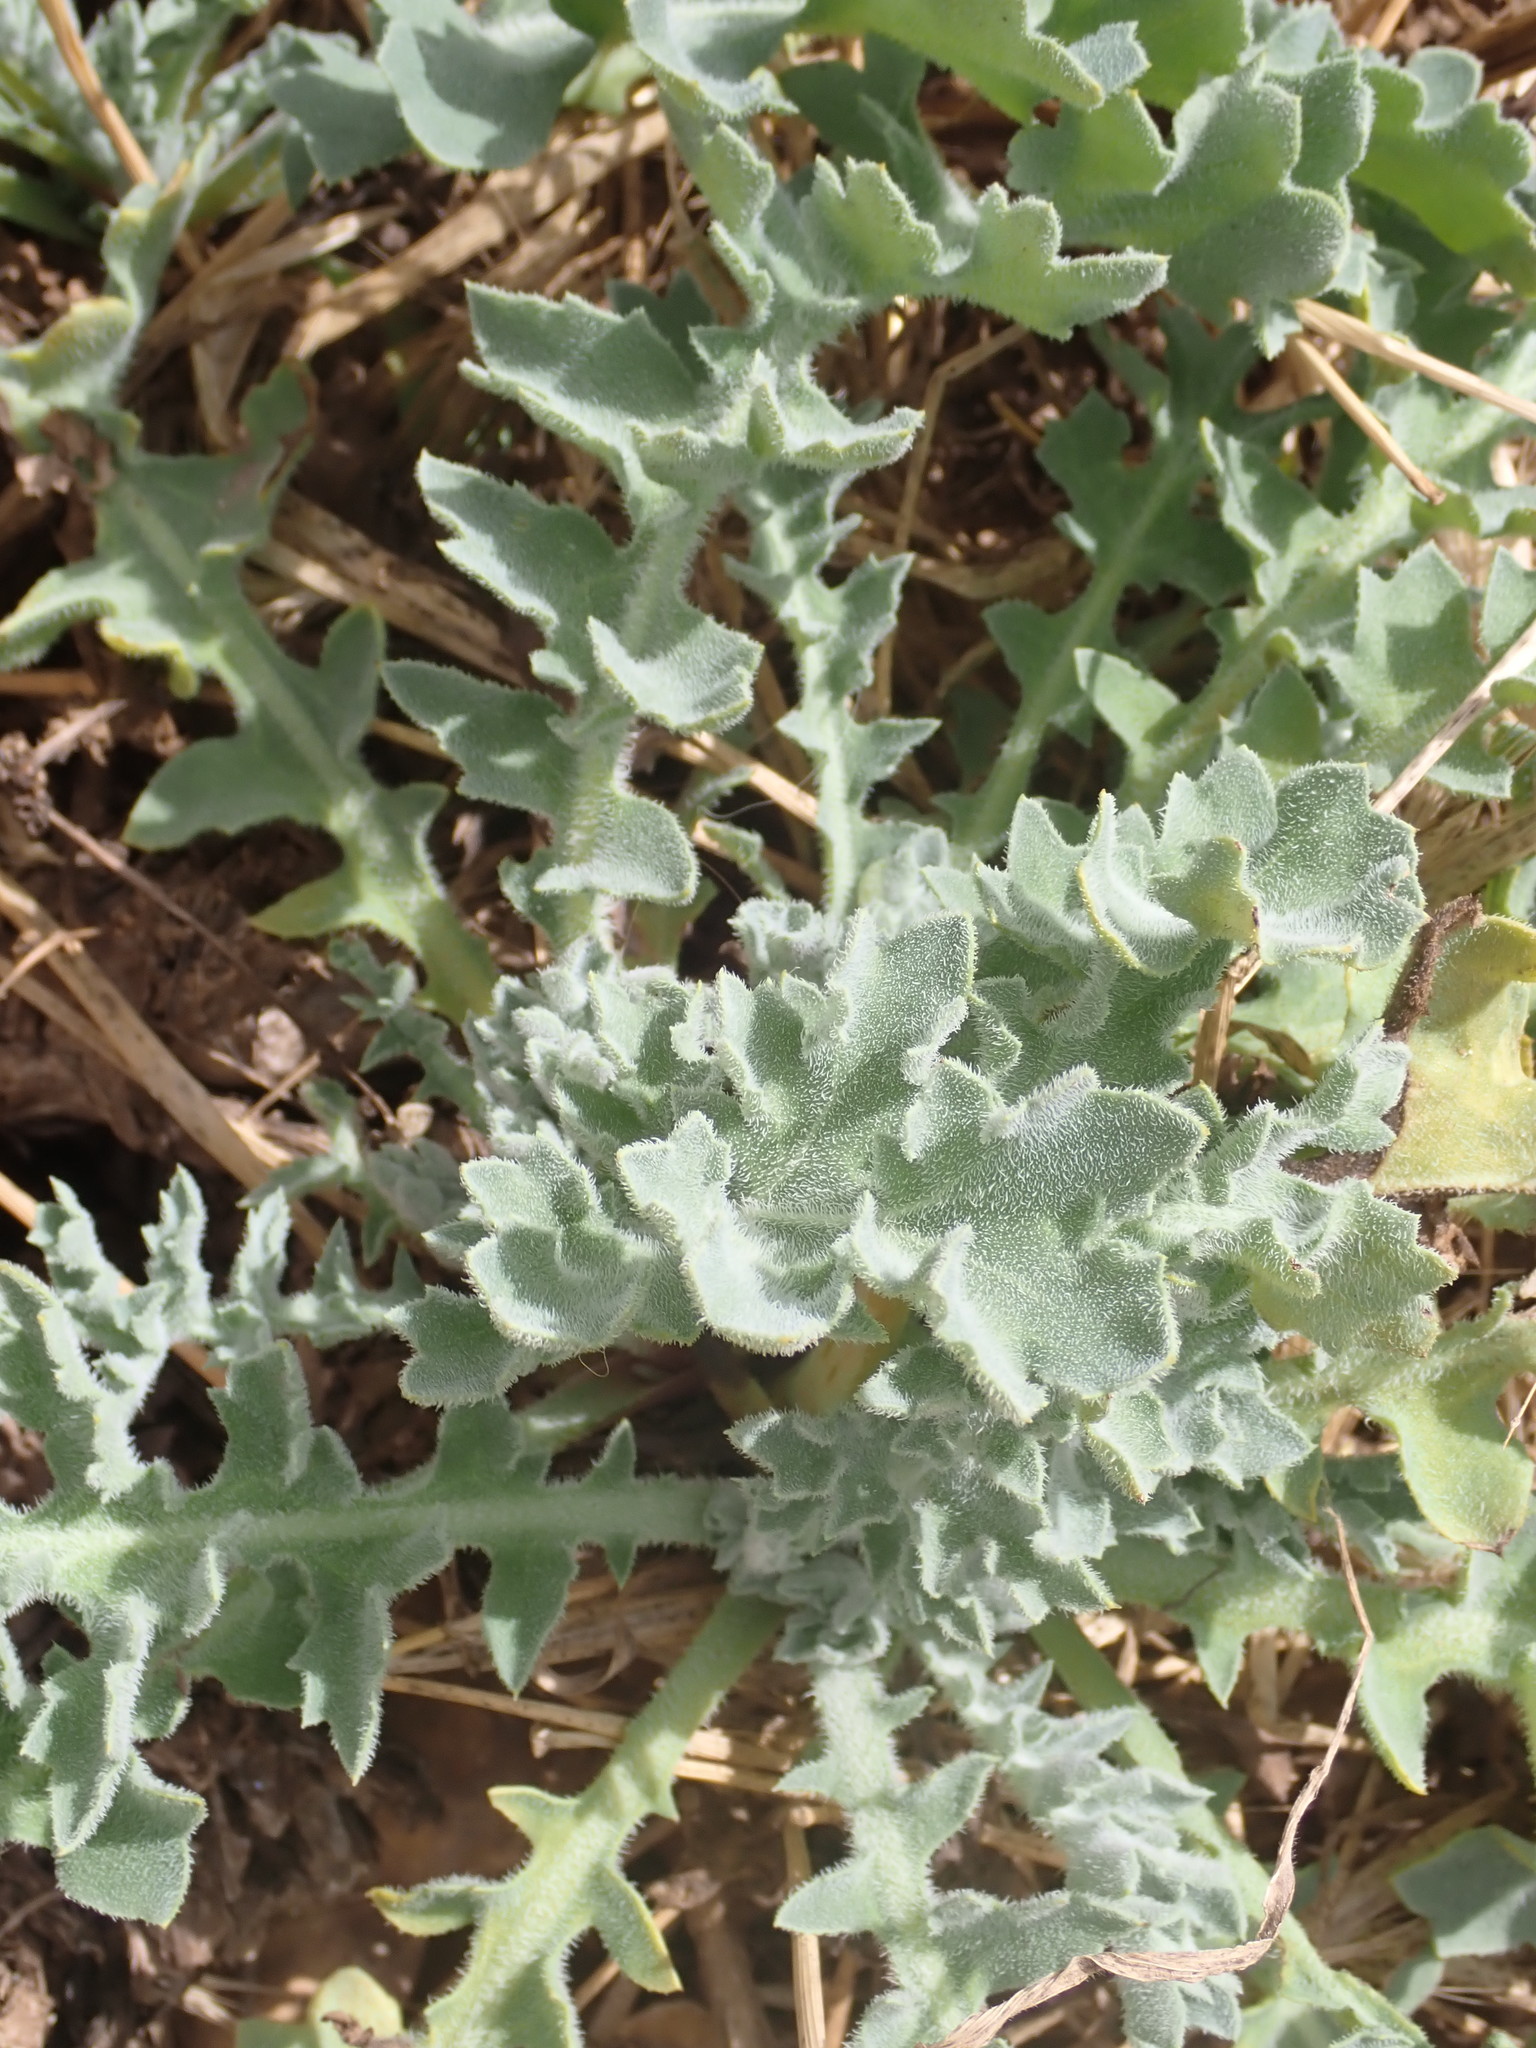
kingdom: Plantae
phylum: Tracheophyta
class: Magnoliopsida
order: Ranunculales
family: Papaveraceae
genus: Glaucium
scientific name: Glaucium flavum
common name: Yellow horned-poppy
